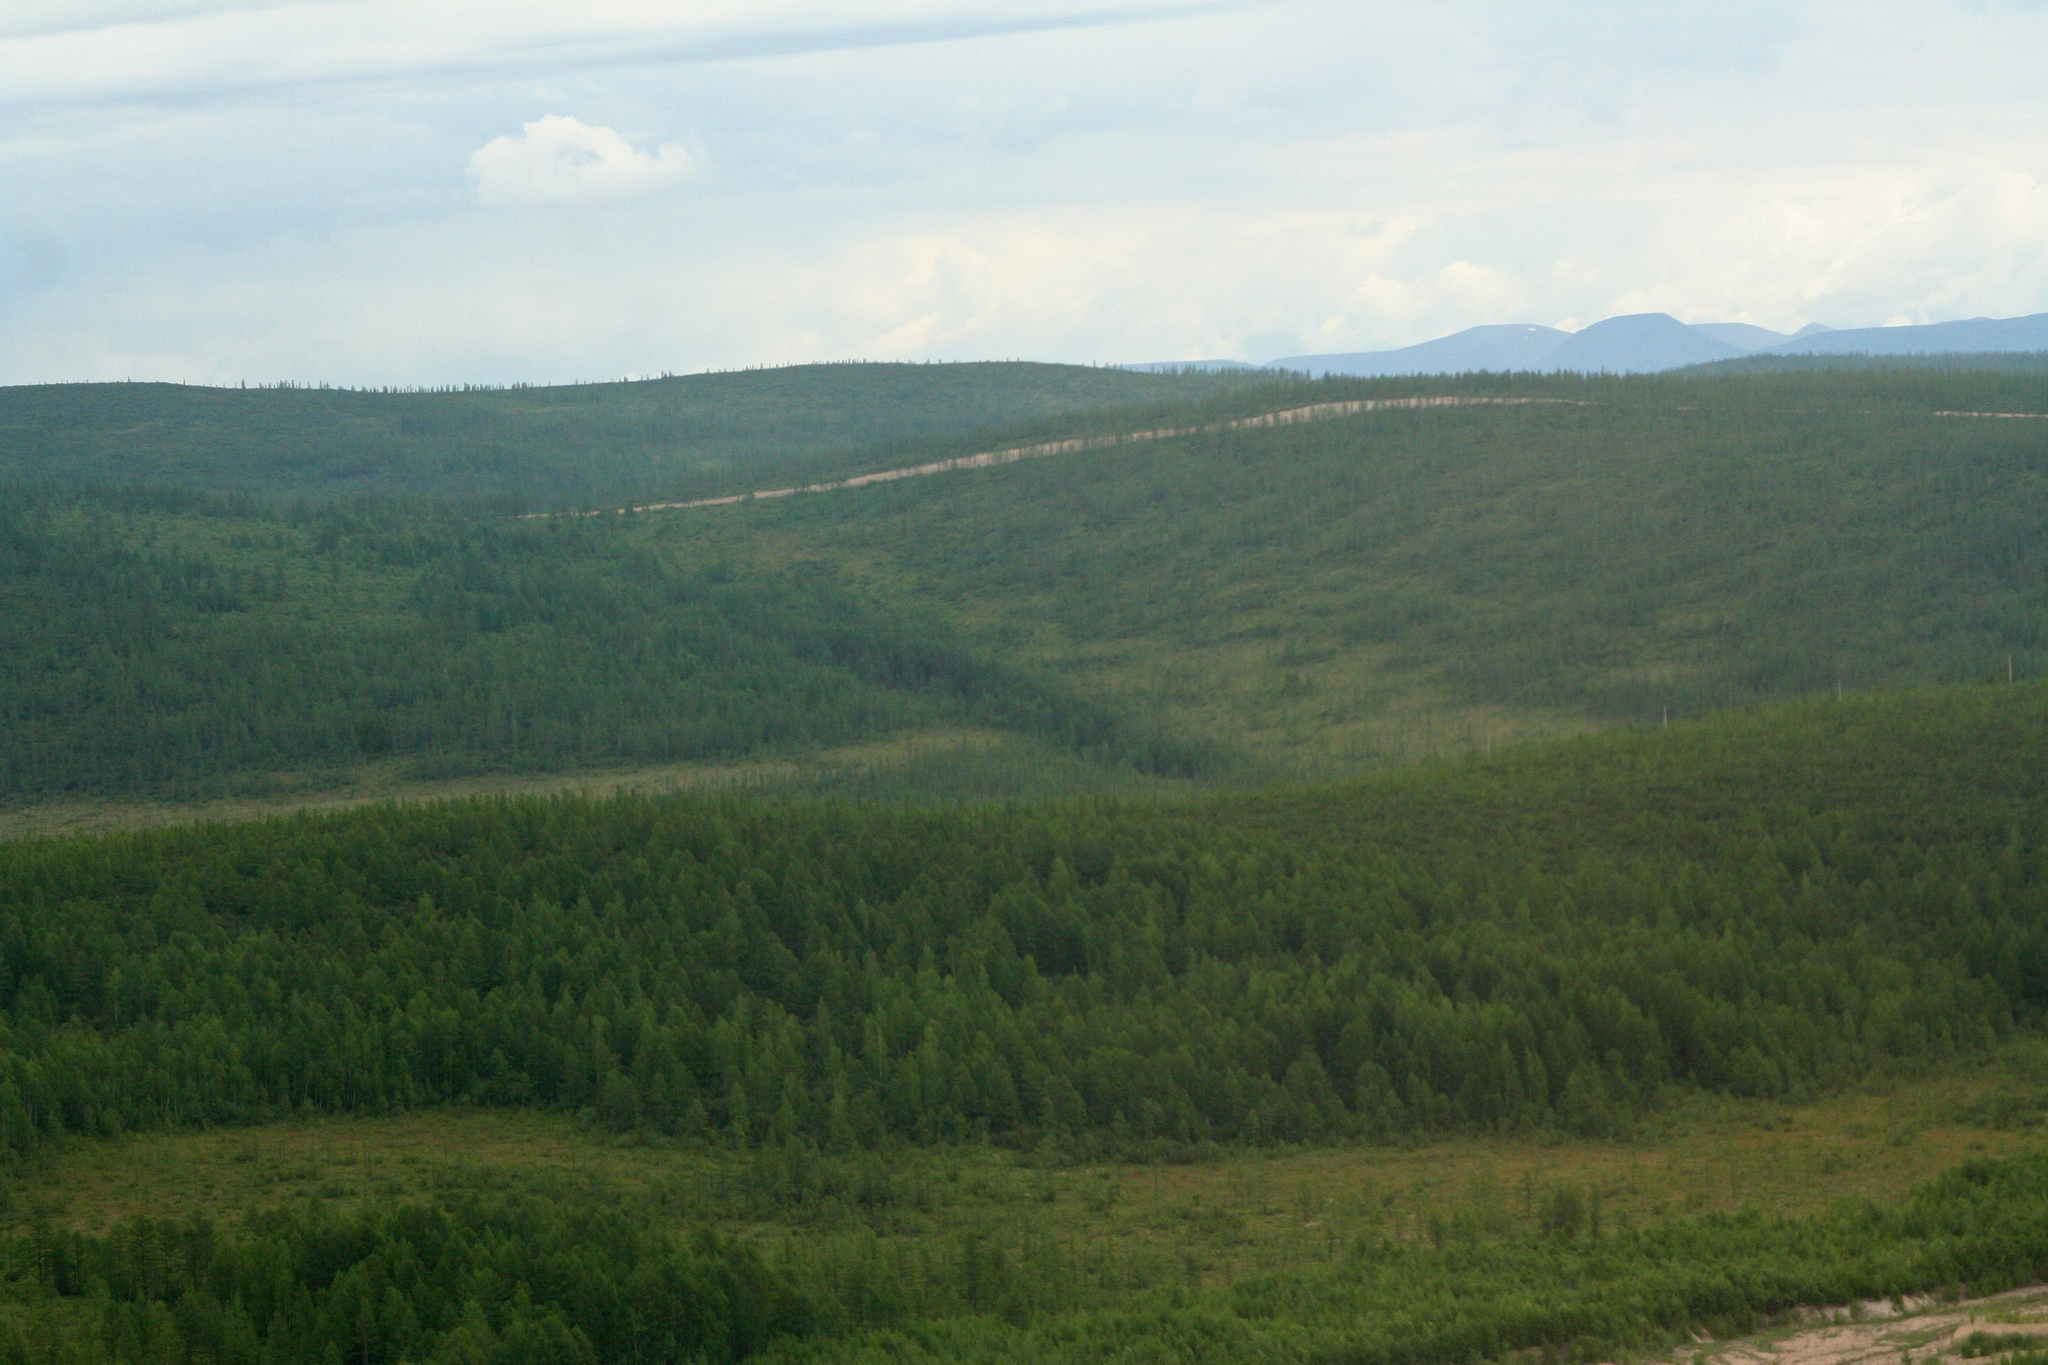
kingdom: Plantae
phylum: Tracheophyta
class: Pinopsida
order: Pinales
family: Pinaceae
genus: Larix
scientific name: Larix gmelinii
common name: Dahurian larch
